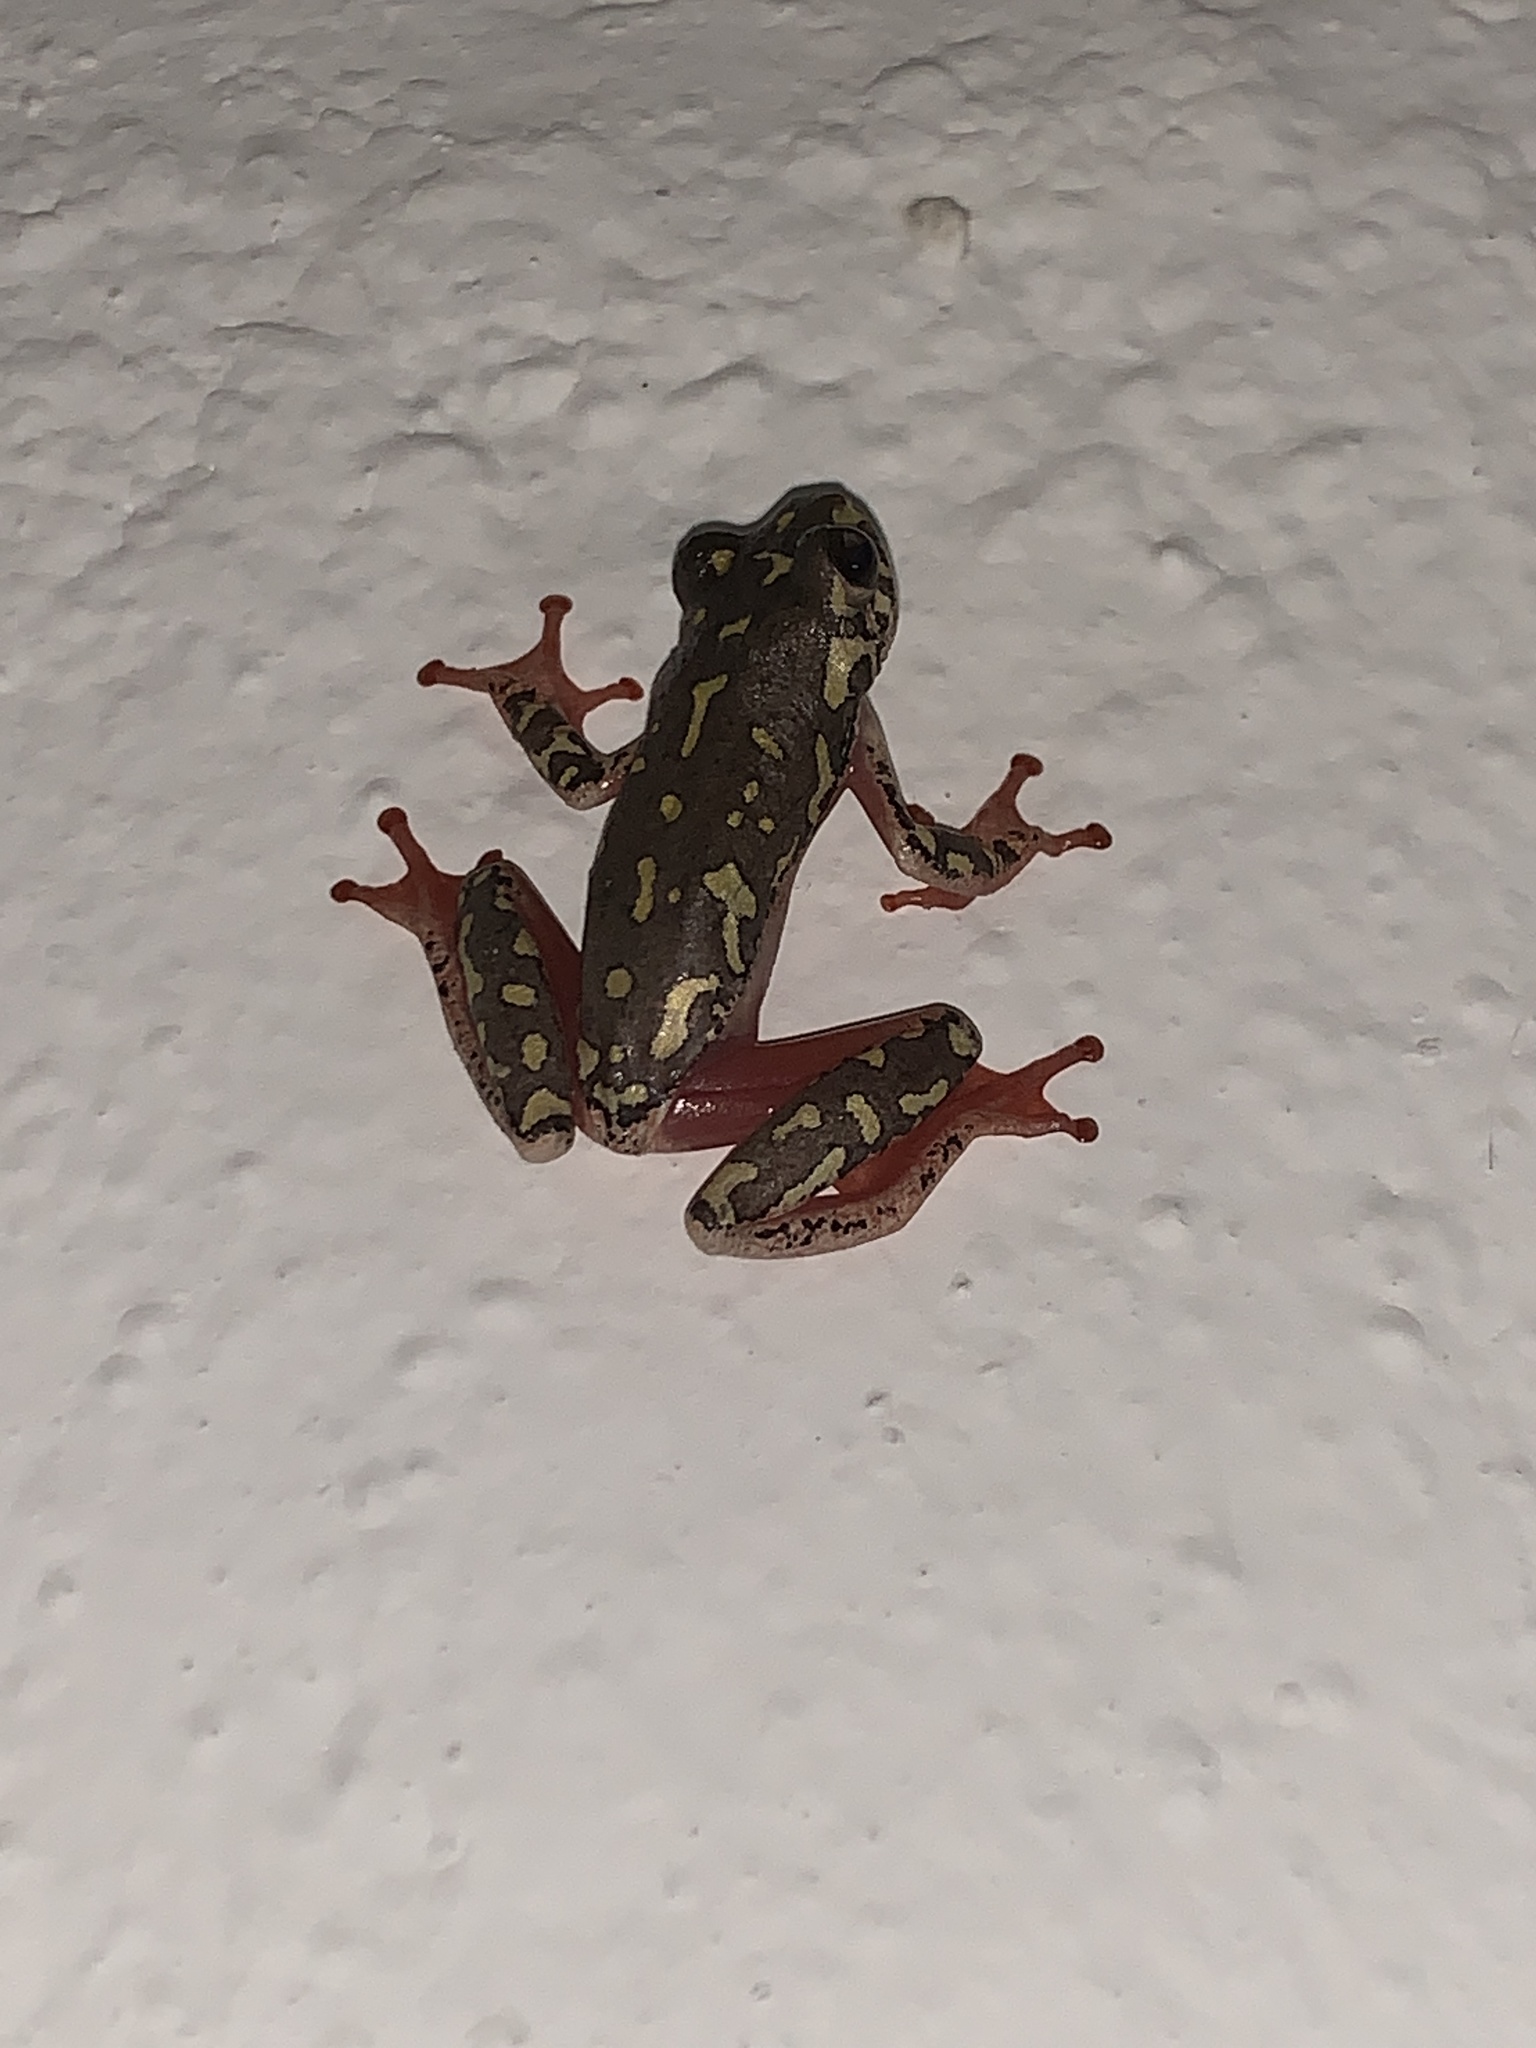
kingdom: Animalia
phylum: Chordata
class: Amphibia
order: Anura
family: Hyperoliidae
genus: Hyperolius
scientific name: Hyperolius marmoratus
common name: Painted reed frog
